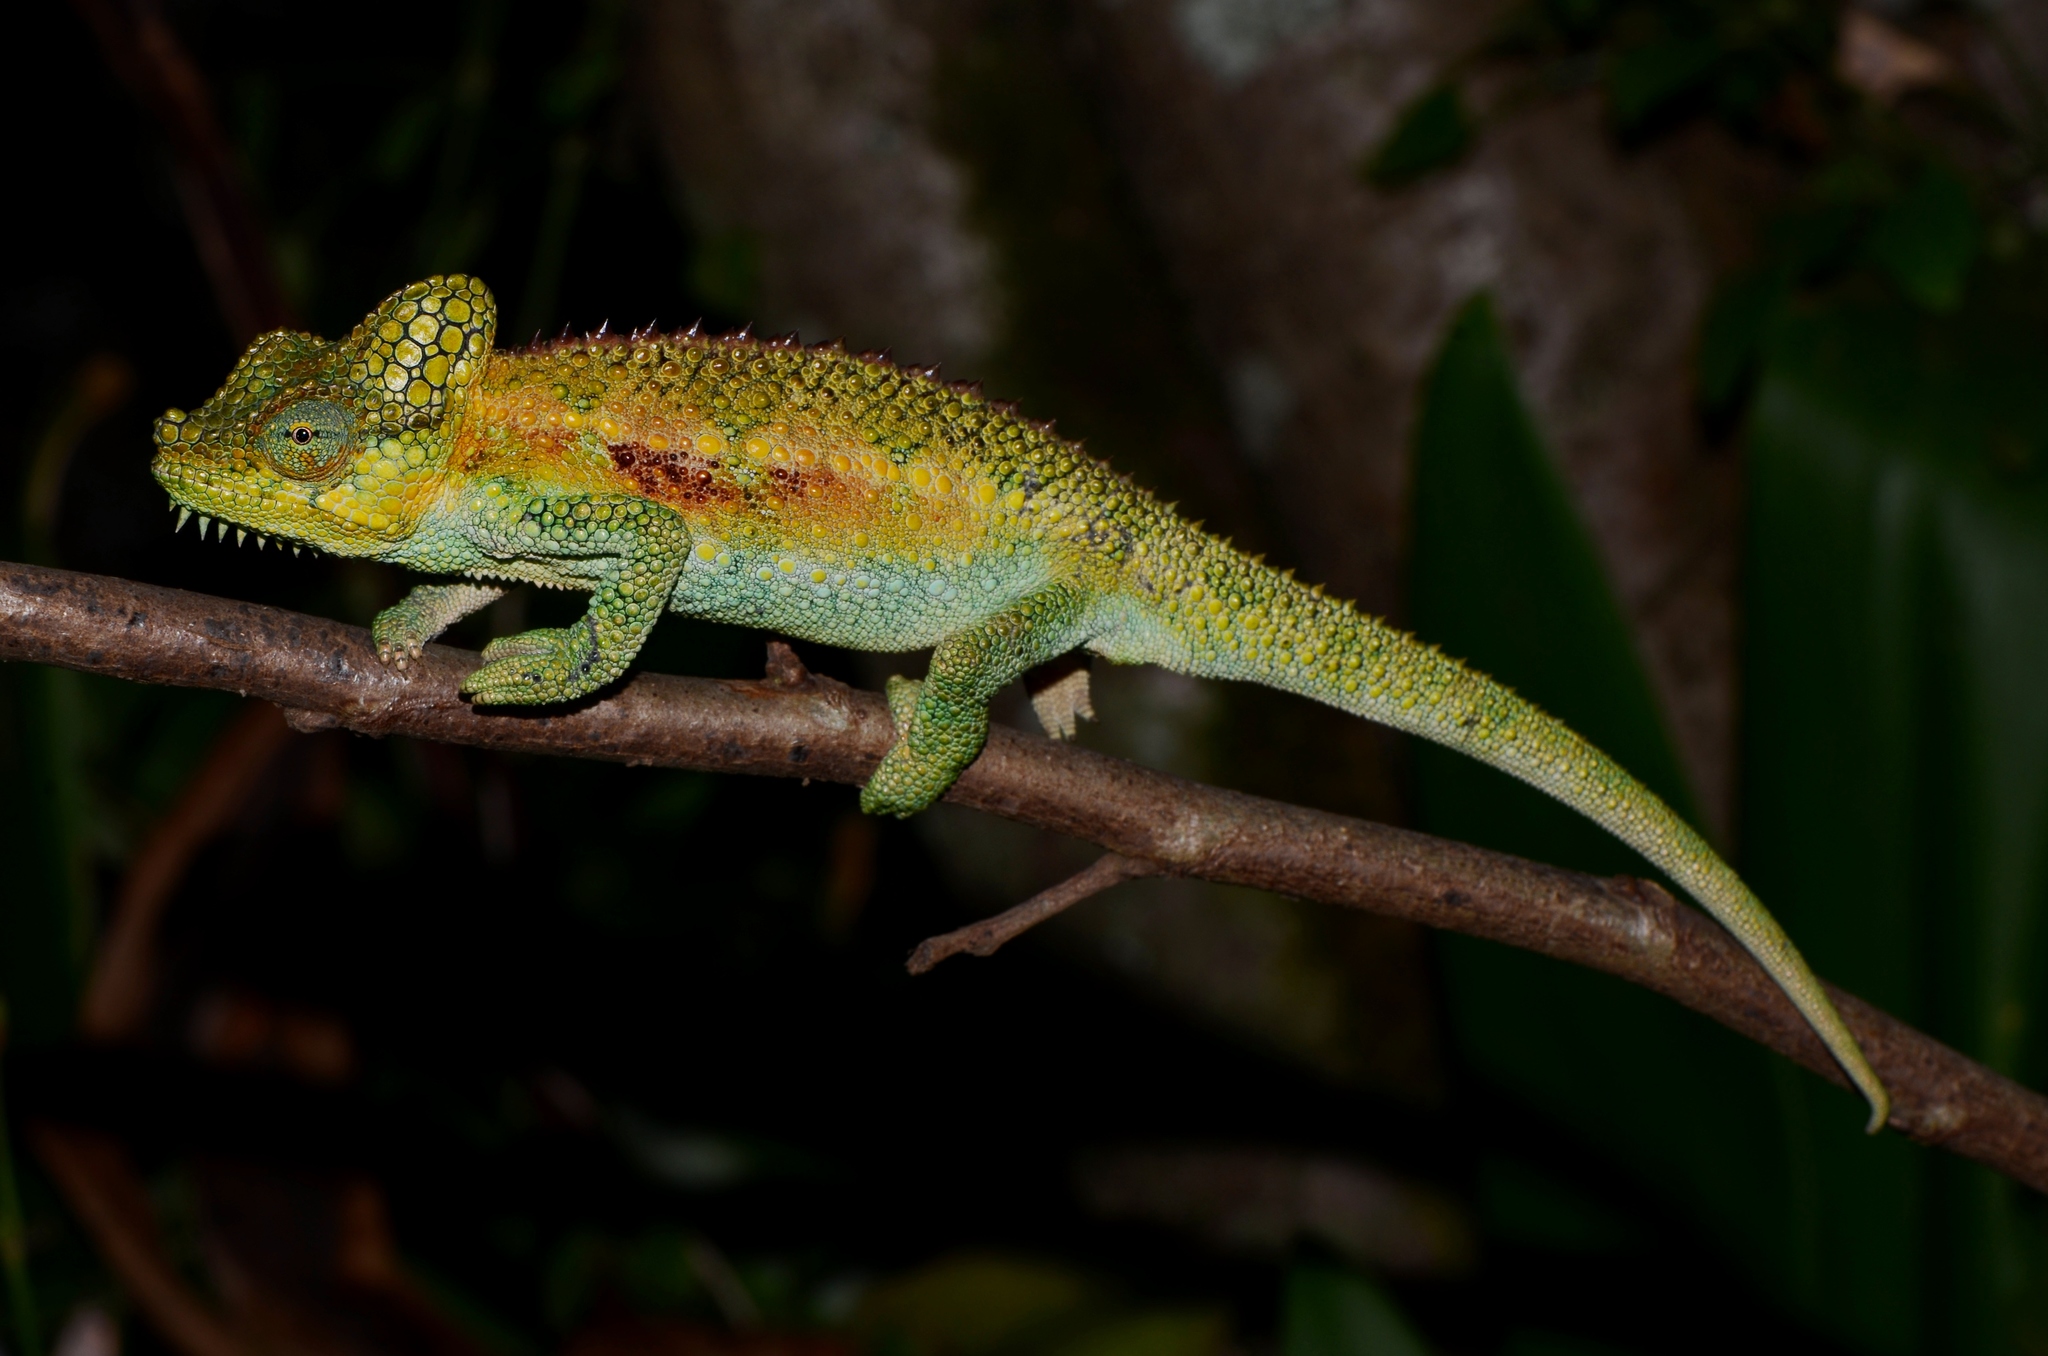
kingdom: Animalia
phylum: Chordata
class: Squamata
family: Chamaeleonidae
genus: Trioceros
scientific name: Trioceros hoehnelii
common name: High-casqued chameleon
